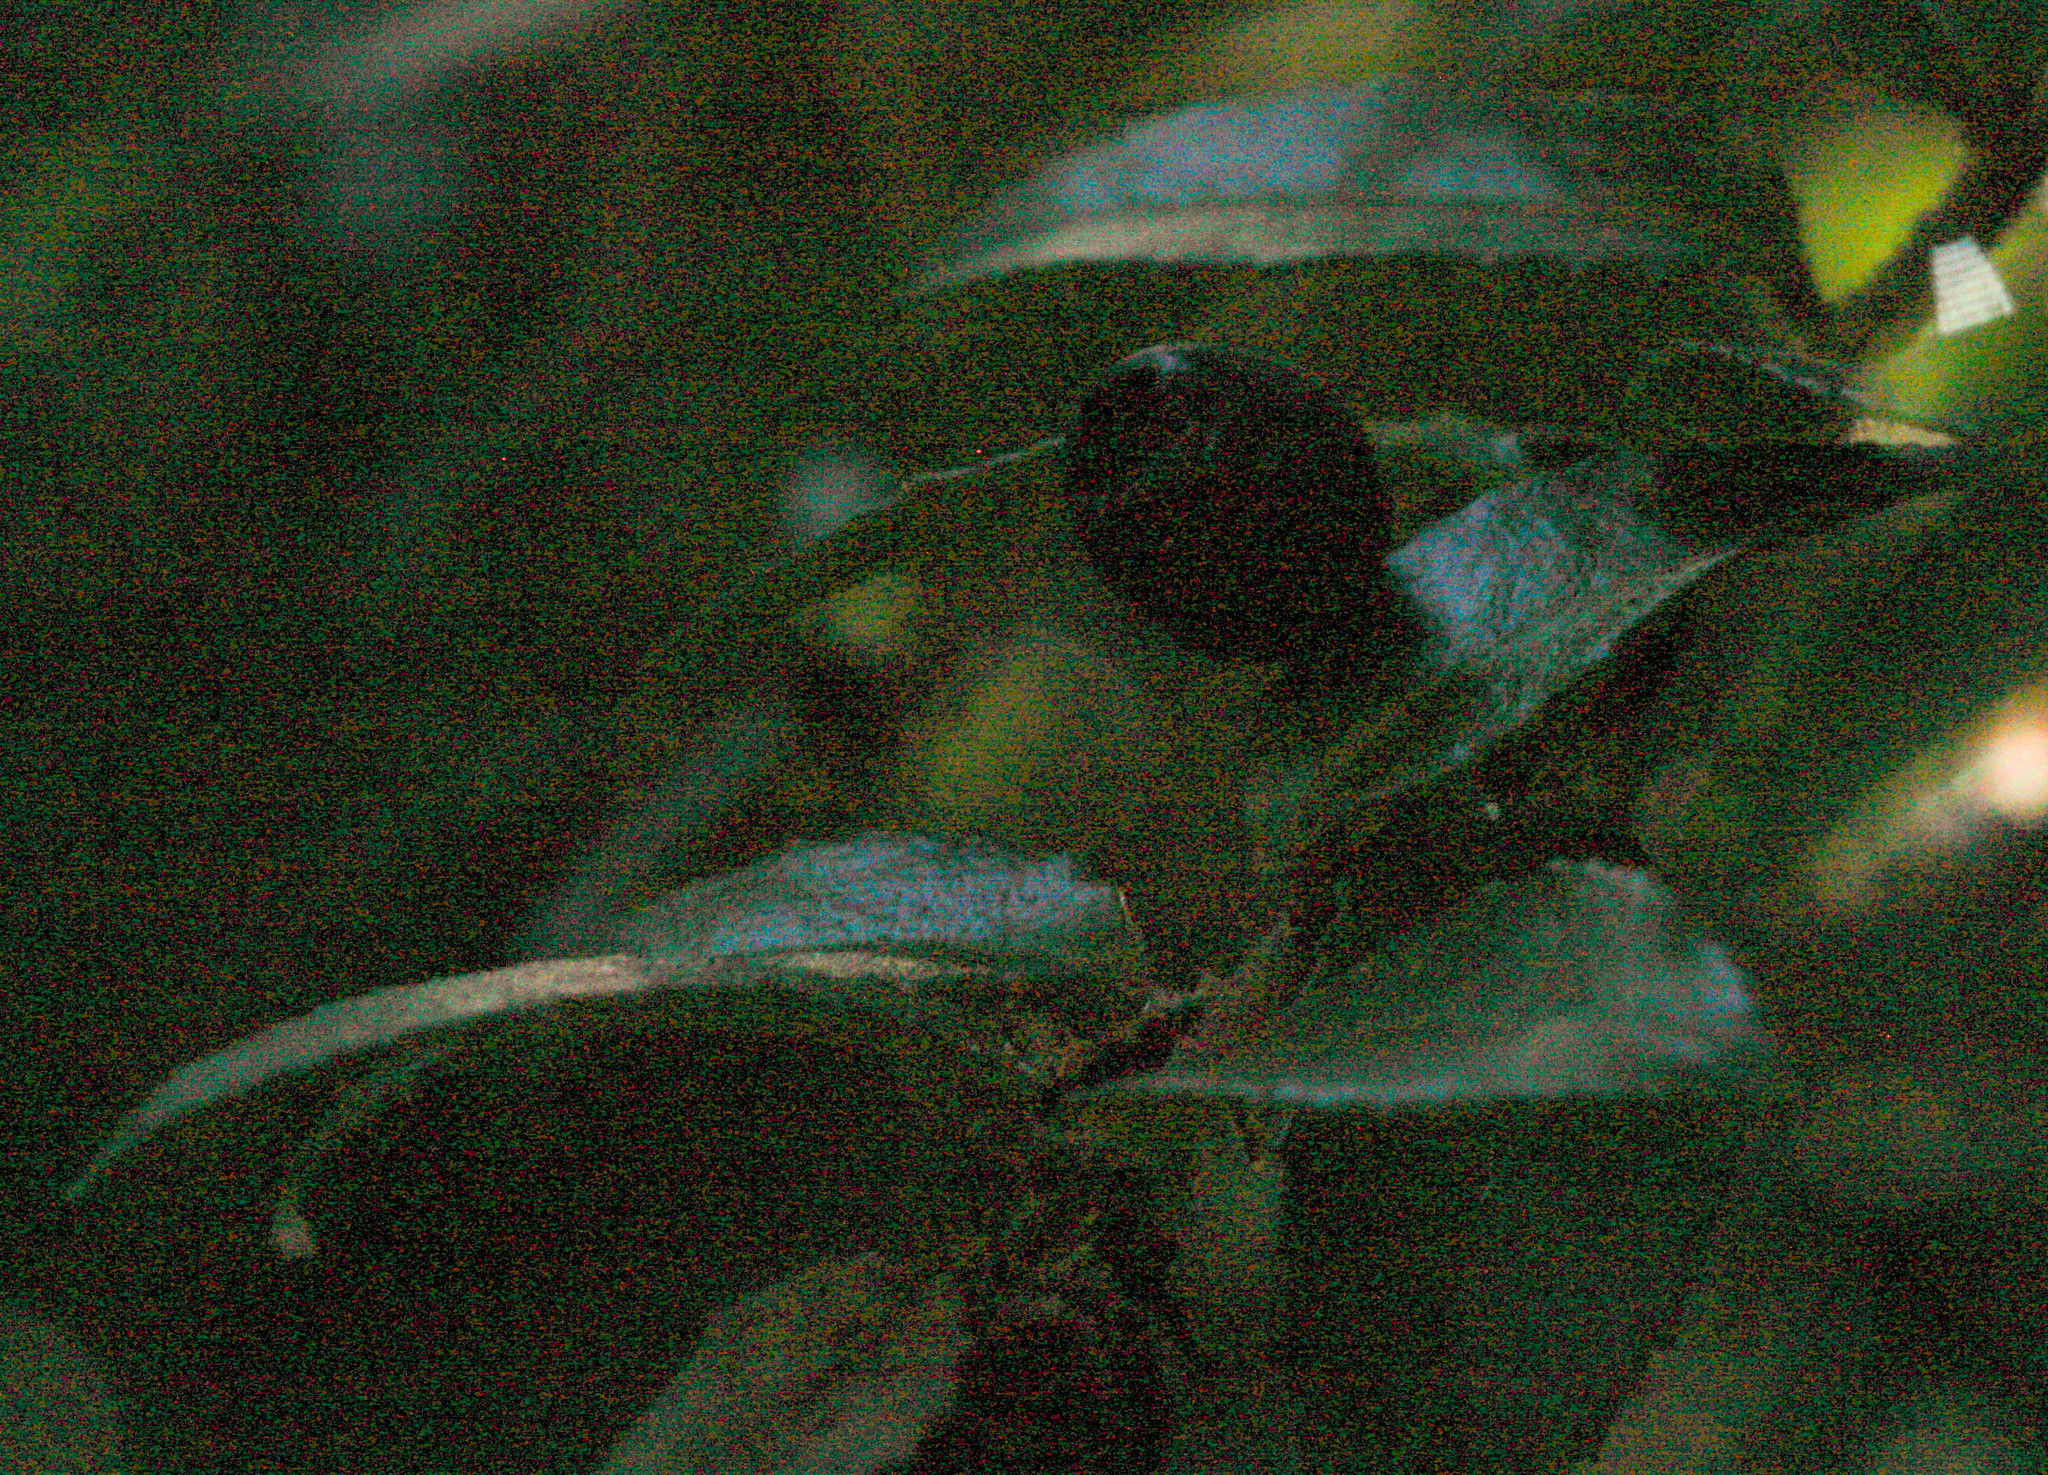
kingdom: Plantae
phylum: Tracheophyta
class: Magnoliopsida
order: Ericales
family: Ericaceae
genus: Vaccinium
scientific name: Vaccinium ovatum
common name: California-huckleberry
